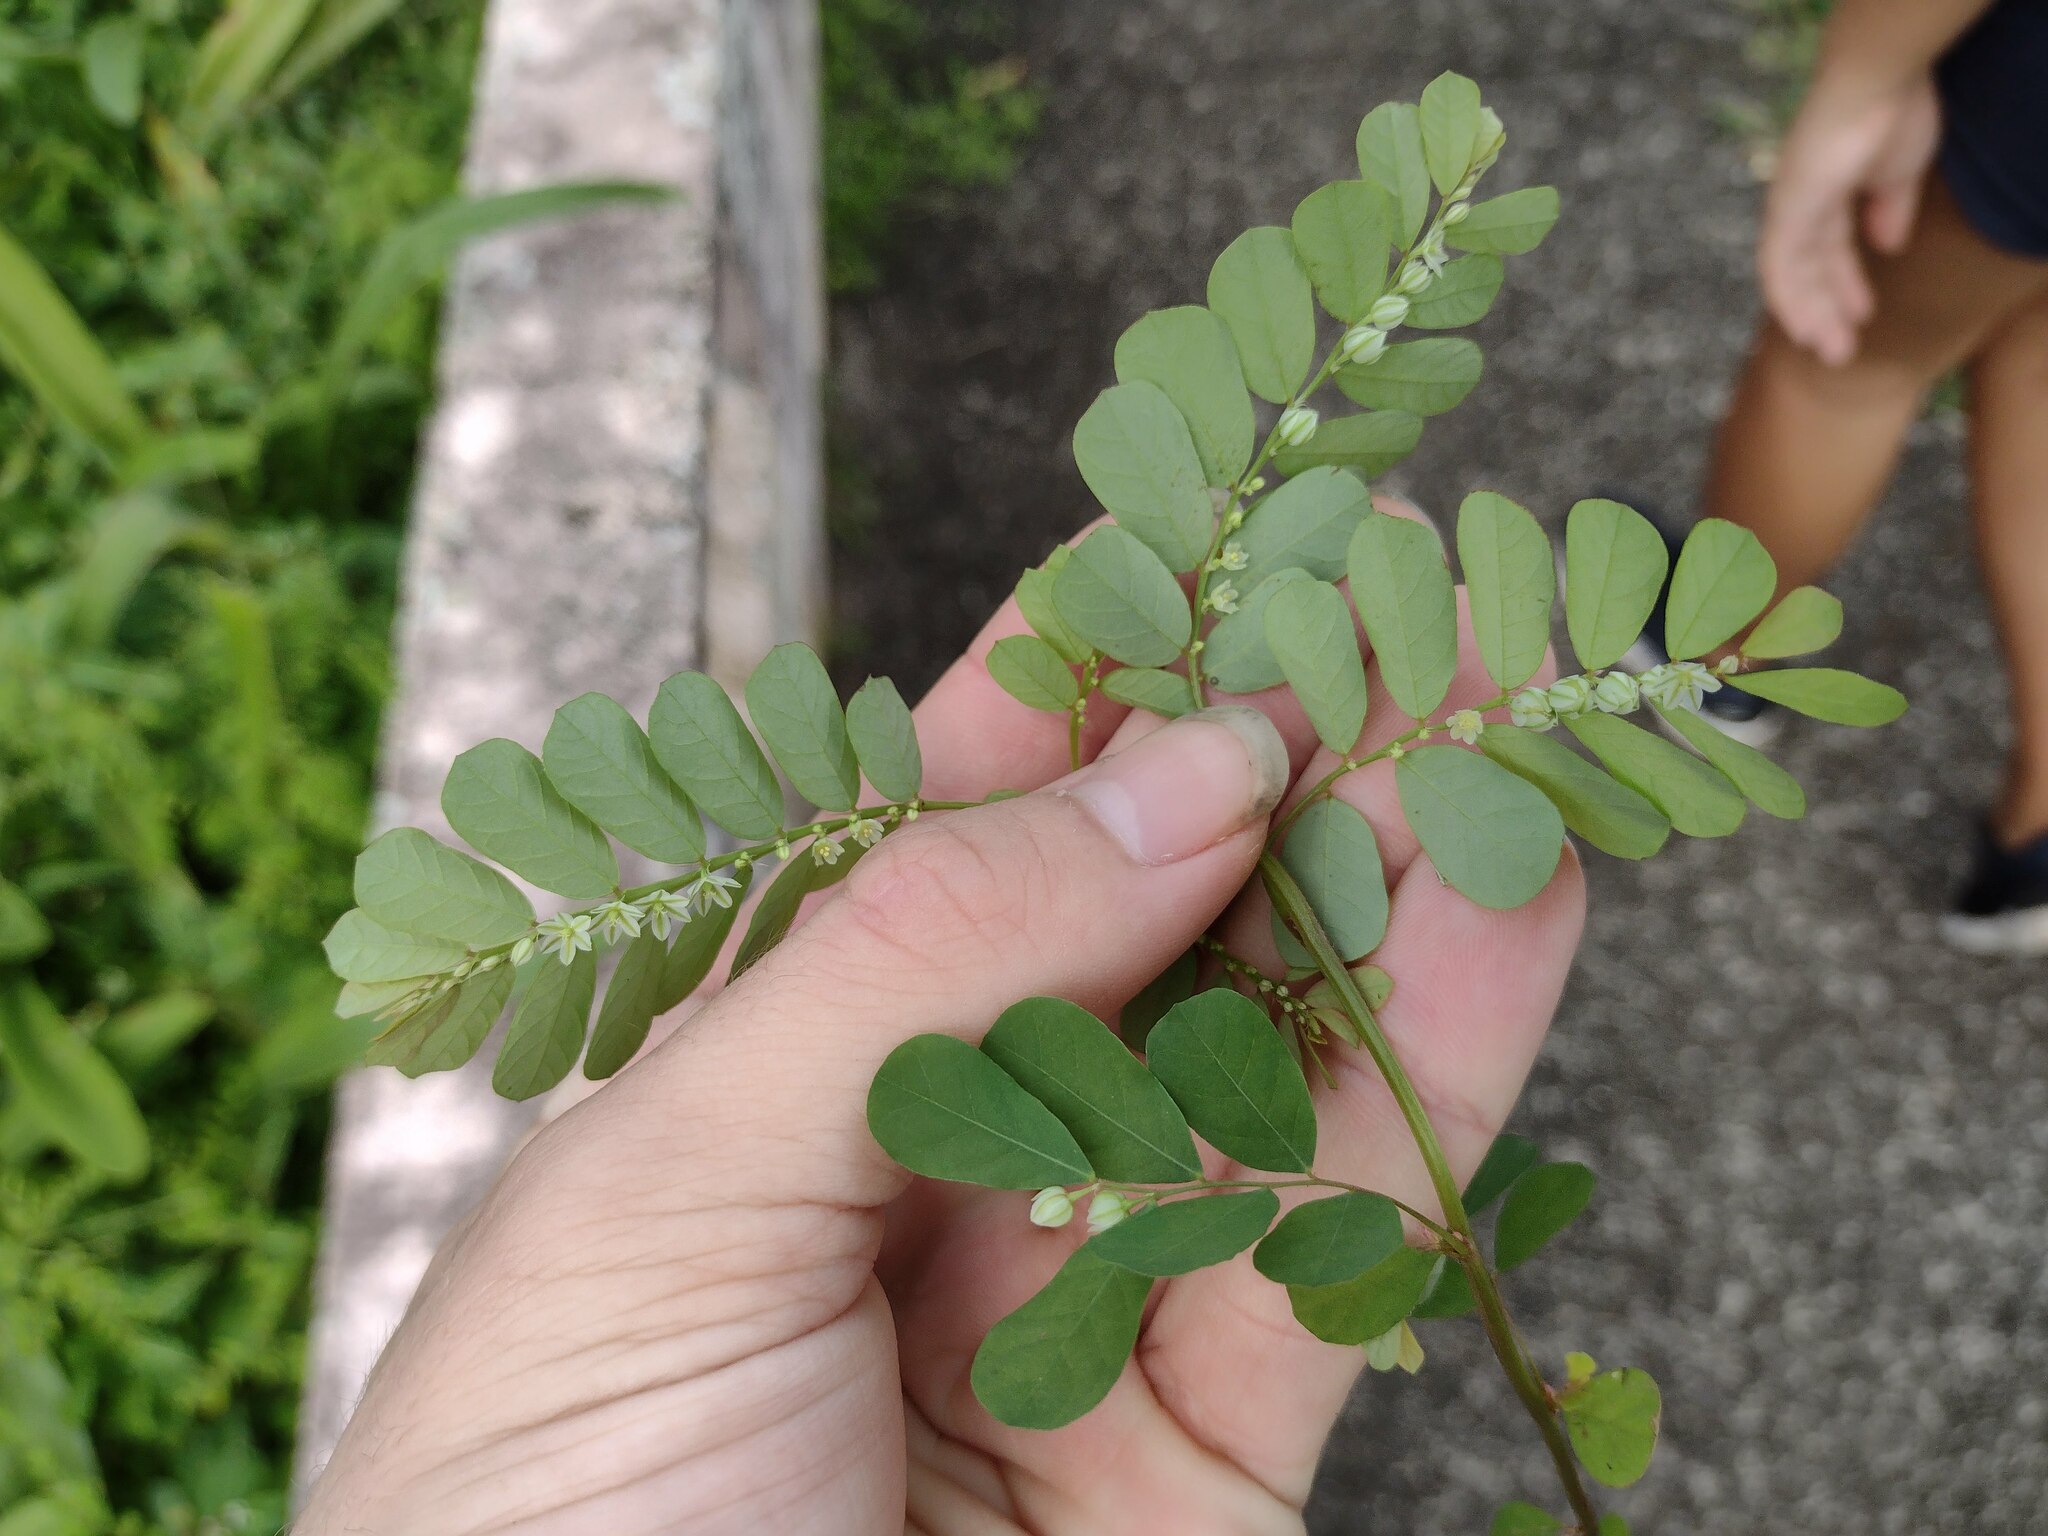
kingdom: Plantae
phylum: Tracheophyta
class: Magnoliopsida
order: Malpighiales
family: Phyllanthaceae
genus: Phyllanthus
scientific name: Phyllanthus leucanthus
